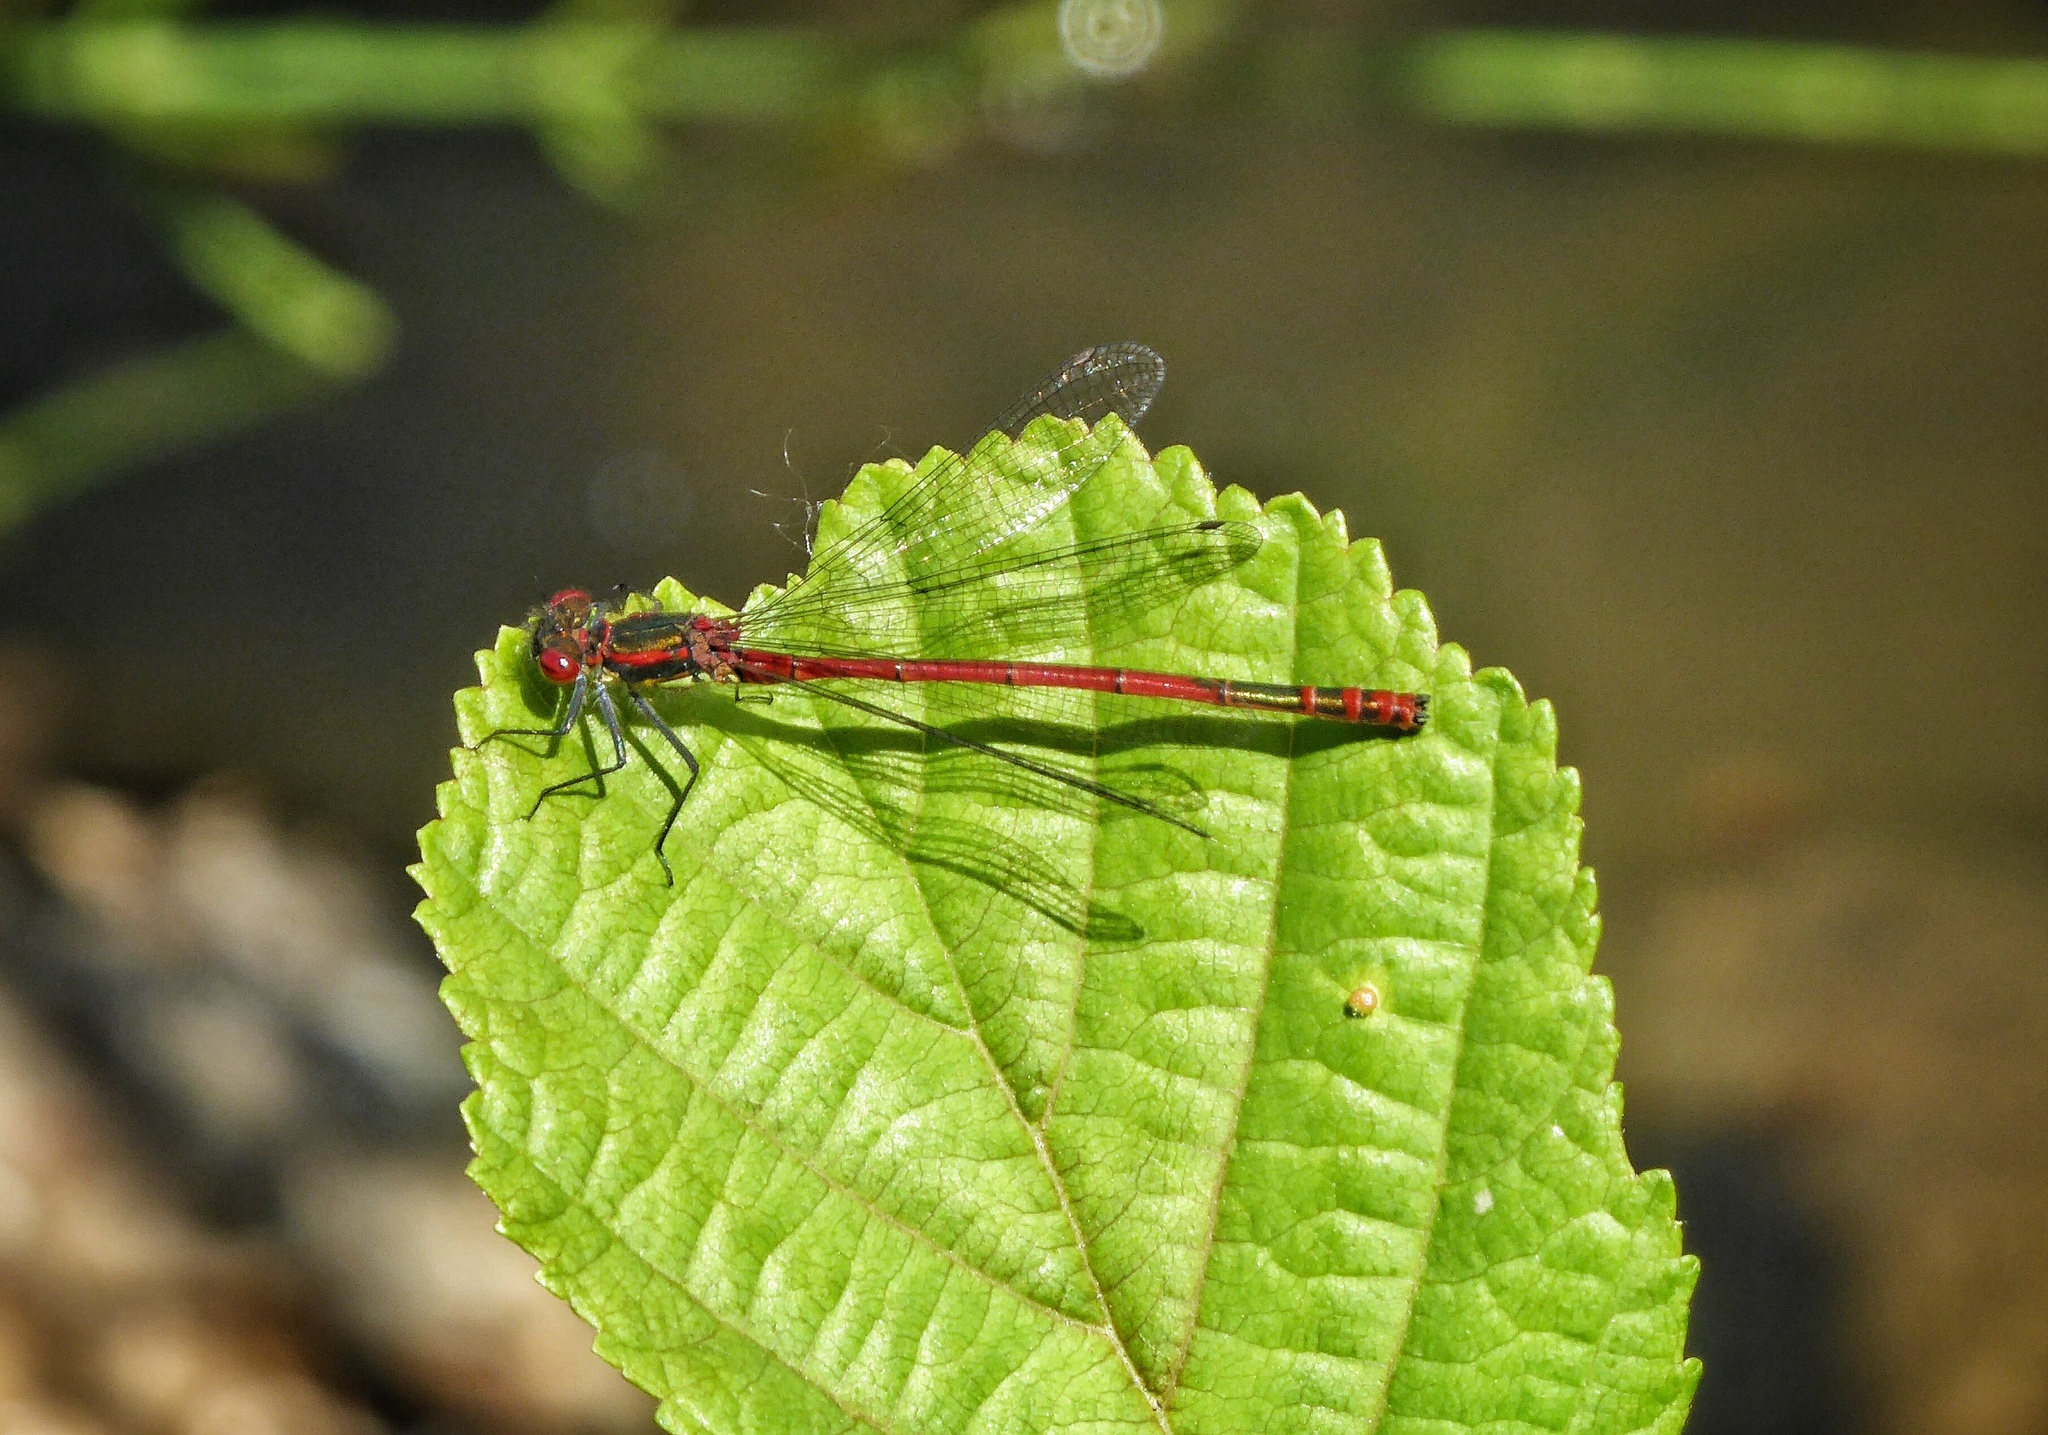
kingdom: Animalia
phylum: Arthropoda
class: Insecta
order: Odonata
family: Coenagrionidae
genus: Pyrrhosoma
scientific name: Pyrrhosoma nymphula
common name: Large red damsel
